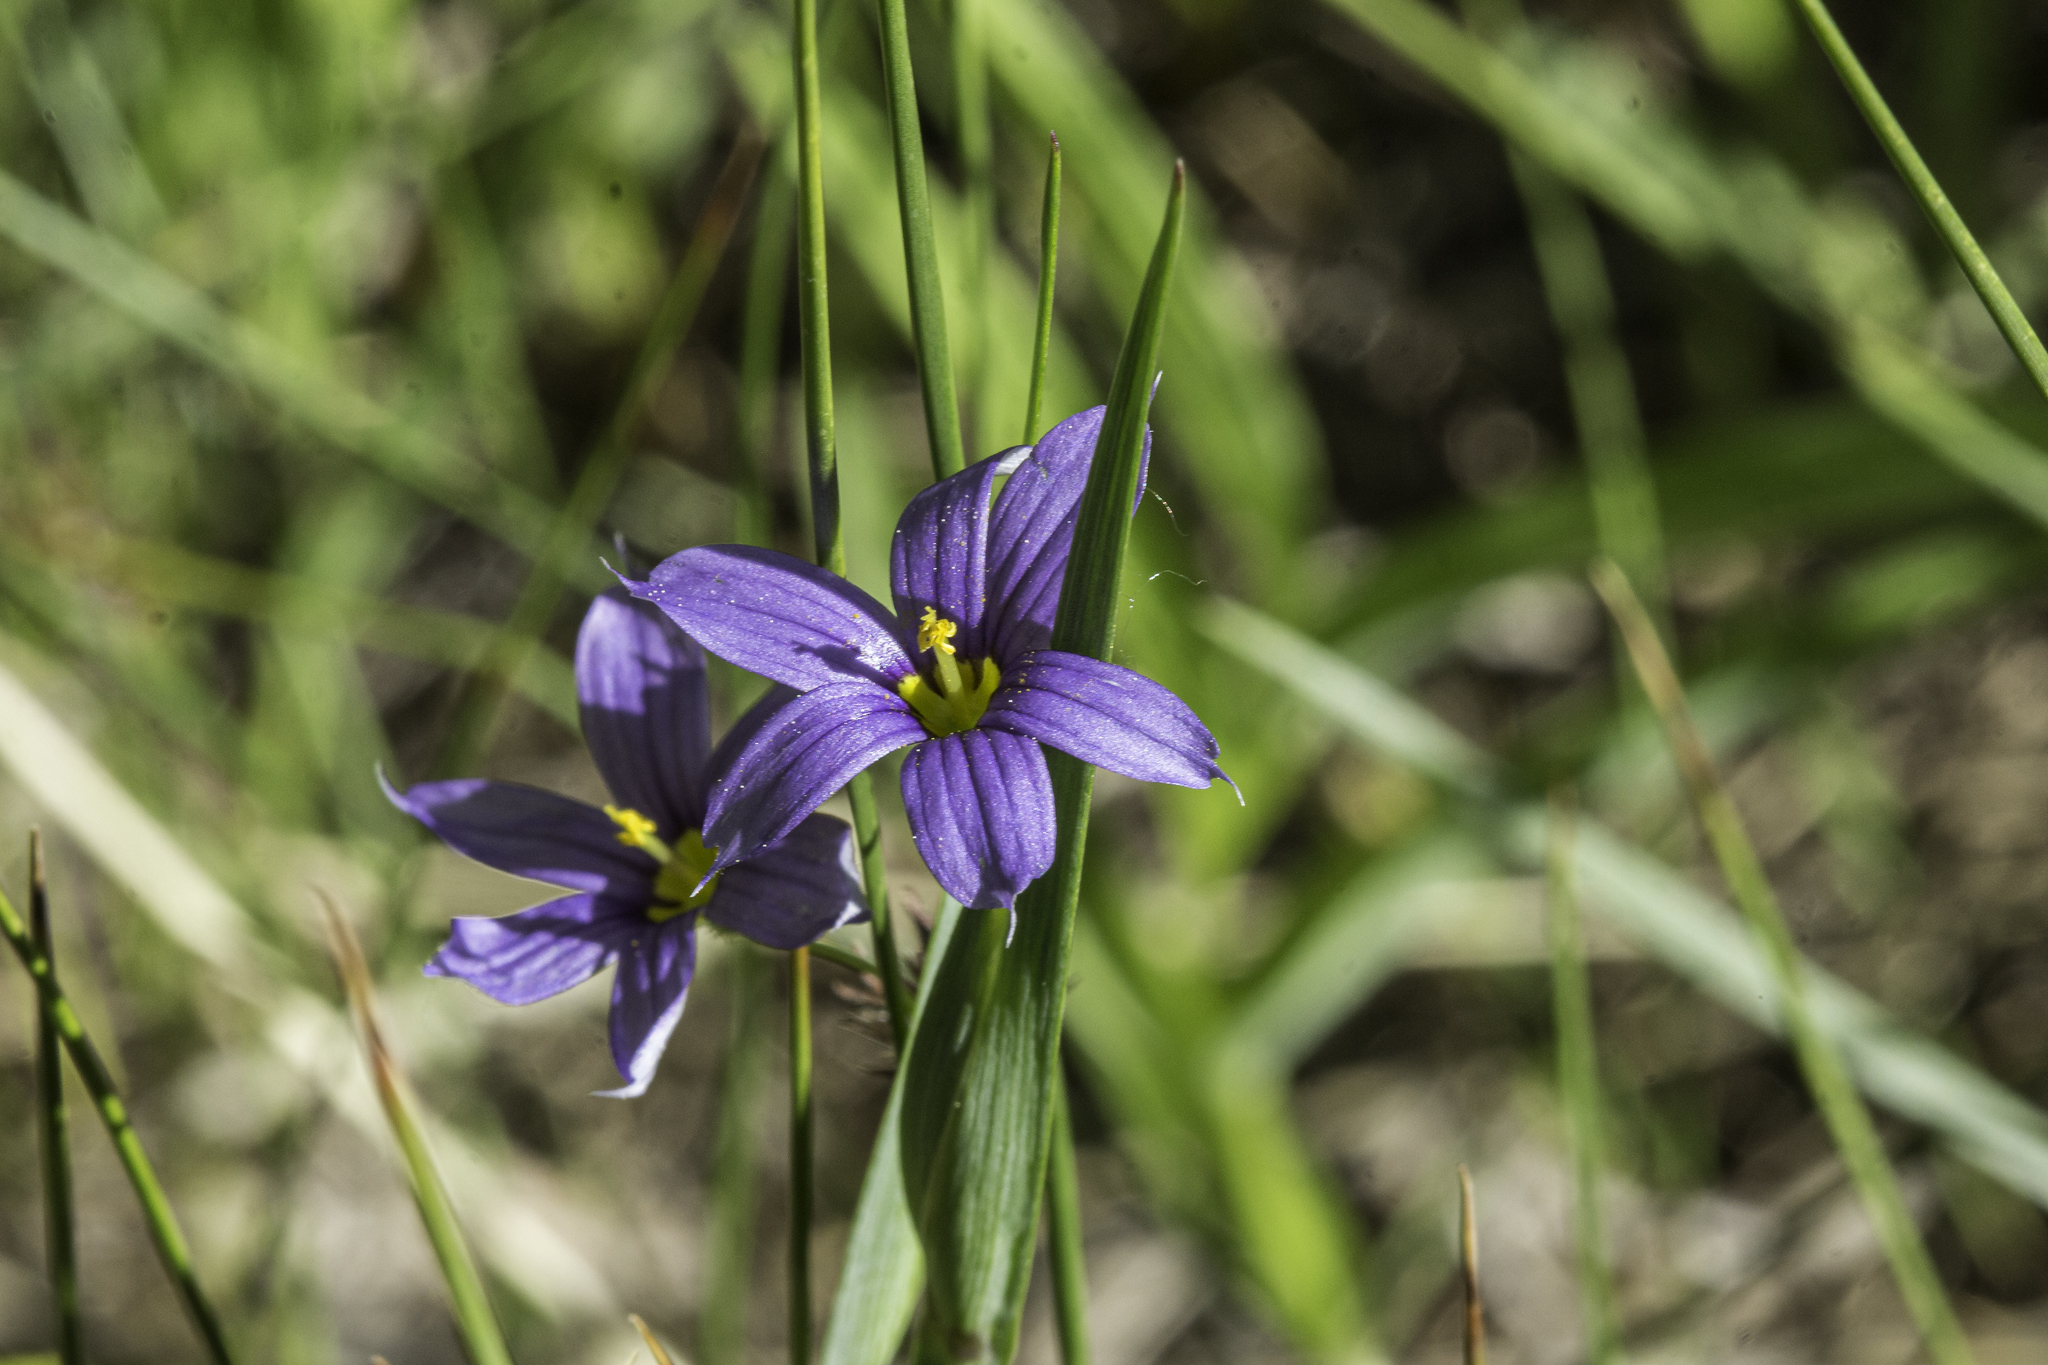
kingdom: Plantae
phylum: Tracheophyta
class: Liliopsida
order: Asparagales
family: Iridaceae
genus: Sisyrinchium
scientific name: Sisyrinchium montanum
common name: American blue-eyed-grass
